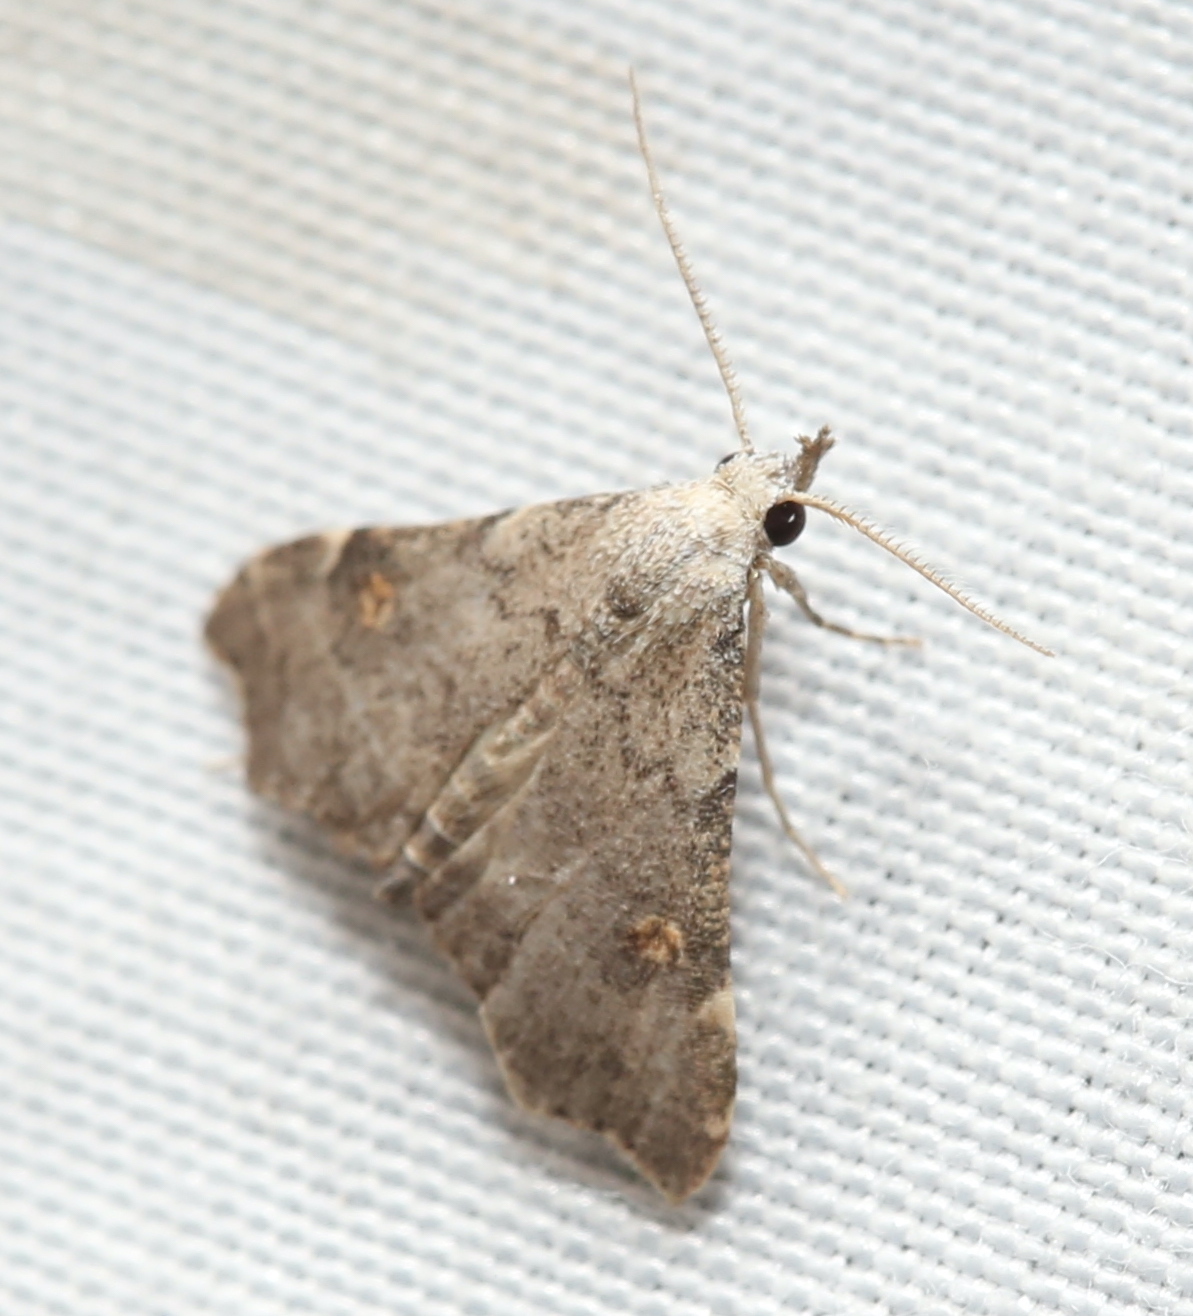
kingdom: Animalia
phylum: Arthropoda
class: Insecta
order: Lepidoptera
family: Erebidae
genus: Redectis
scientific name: Redectis pygmaea
